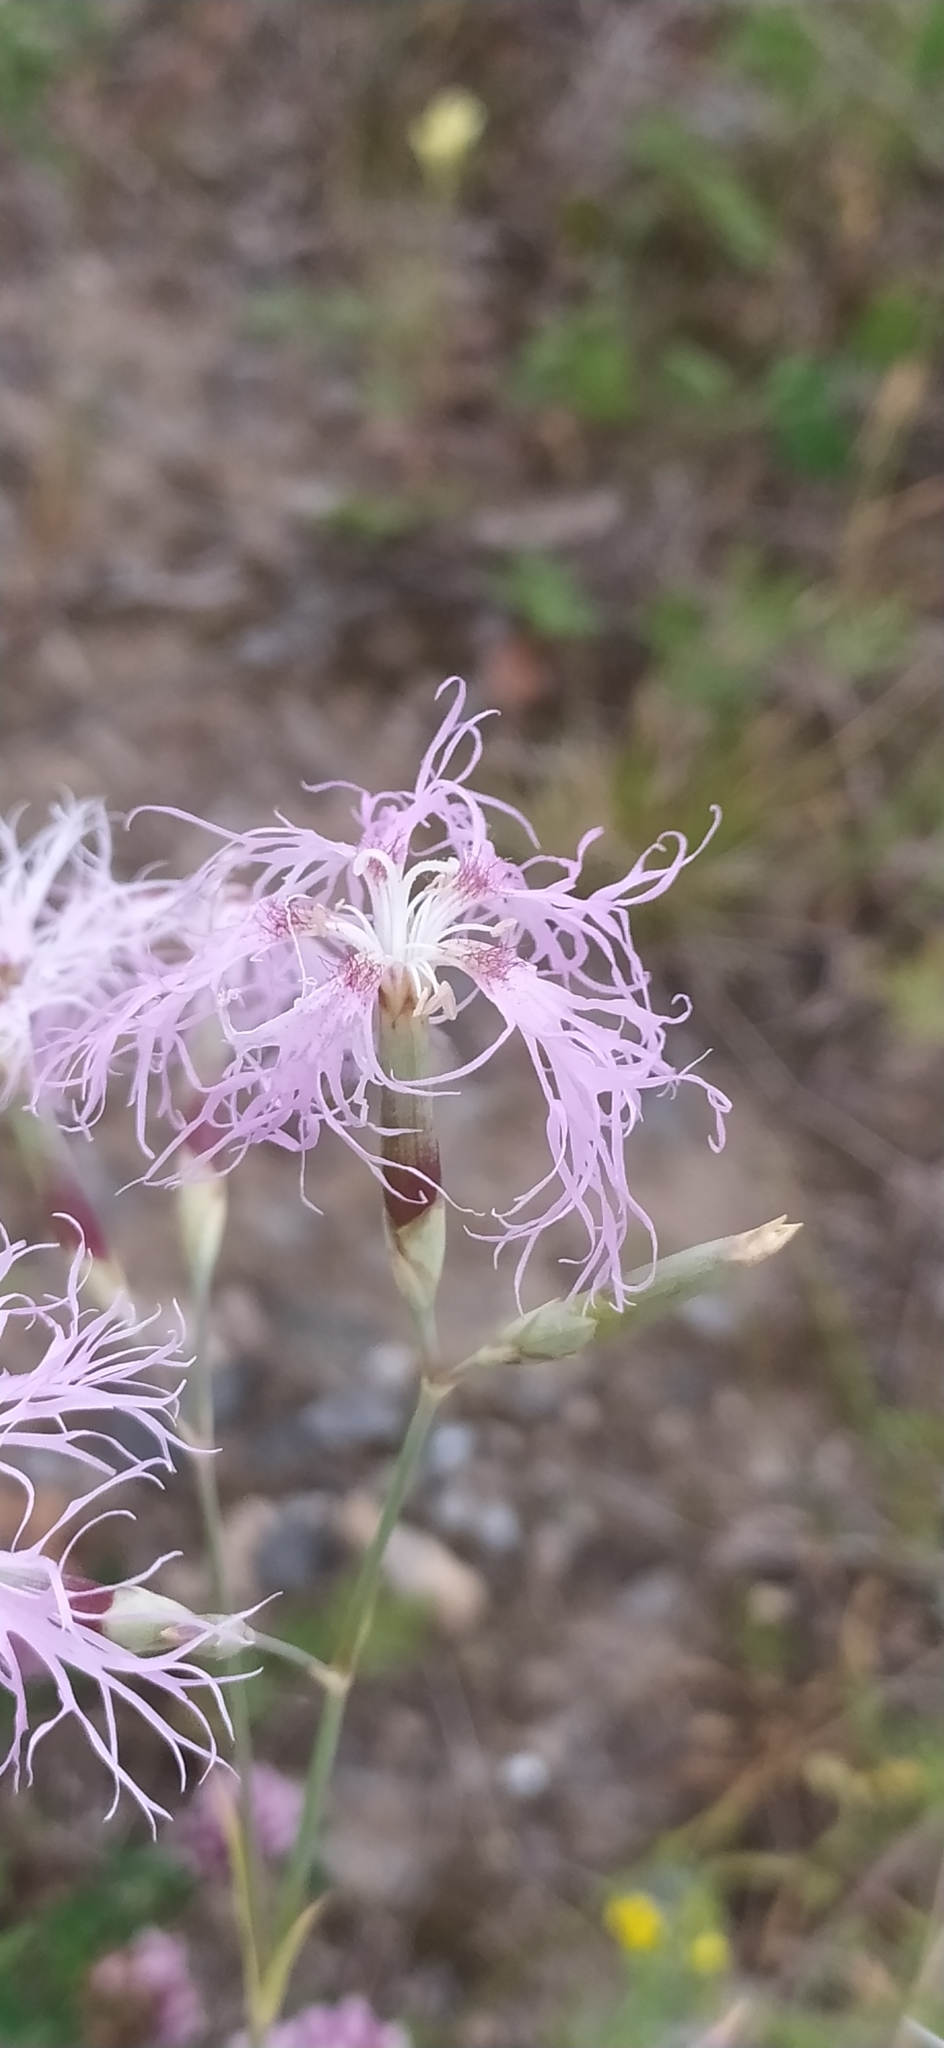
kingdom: Plantae
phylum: Tracheophyta
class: Magnoliopsida
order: Caryophyllales
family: Caryophyllaceae
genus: Dianthus
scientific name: Dianthus superbus
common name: Fringed pink
